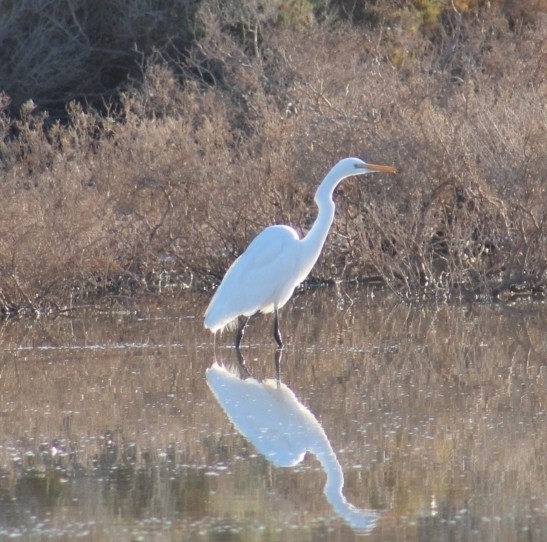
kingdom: Animalia
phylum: Chordata
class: Aves
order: Pelecaniformes
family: Ardeidae
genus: Ardea
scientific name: Ardea alba
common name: Great egret
